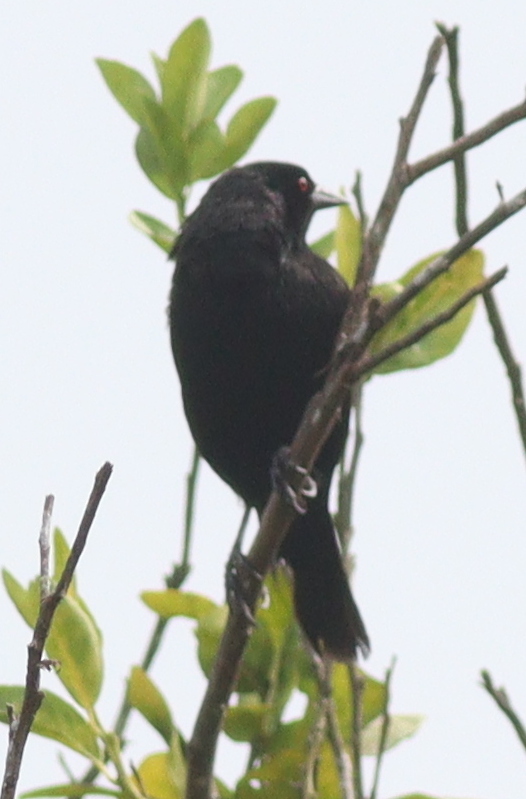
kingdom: Animalia
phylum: Chordata
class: Aves
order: Passeriformes
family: Icteridae
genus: Molothrus
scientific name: Molothrus aeneus
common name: Bronzed cowbird
